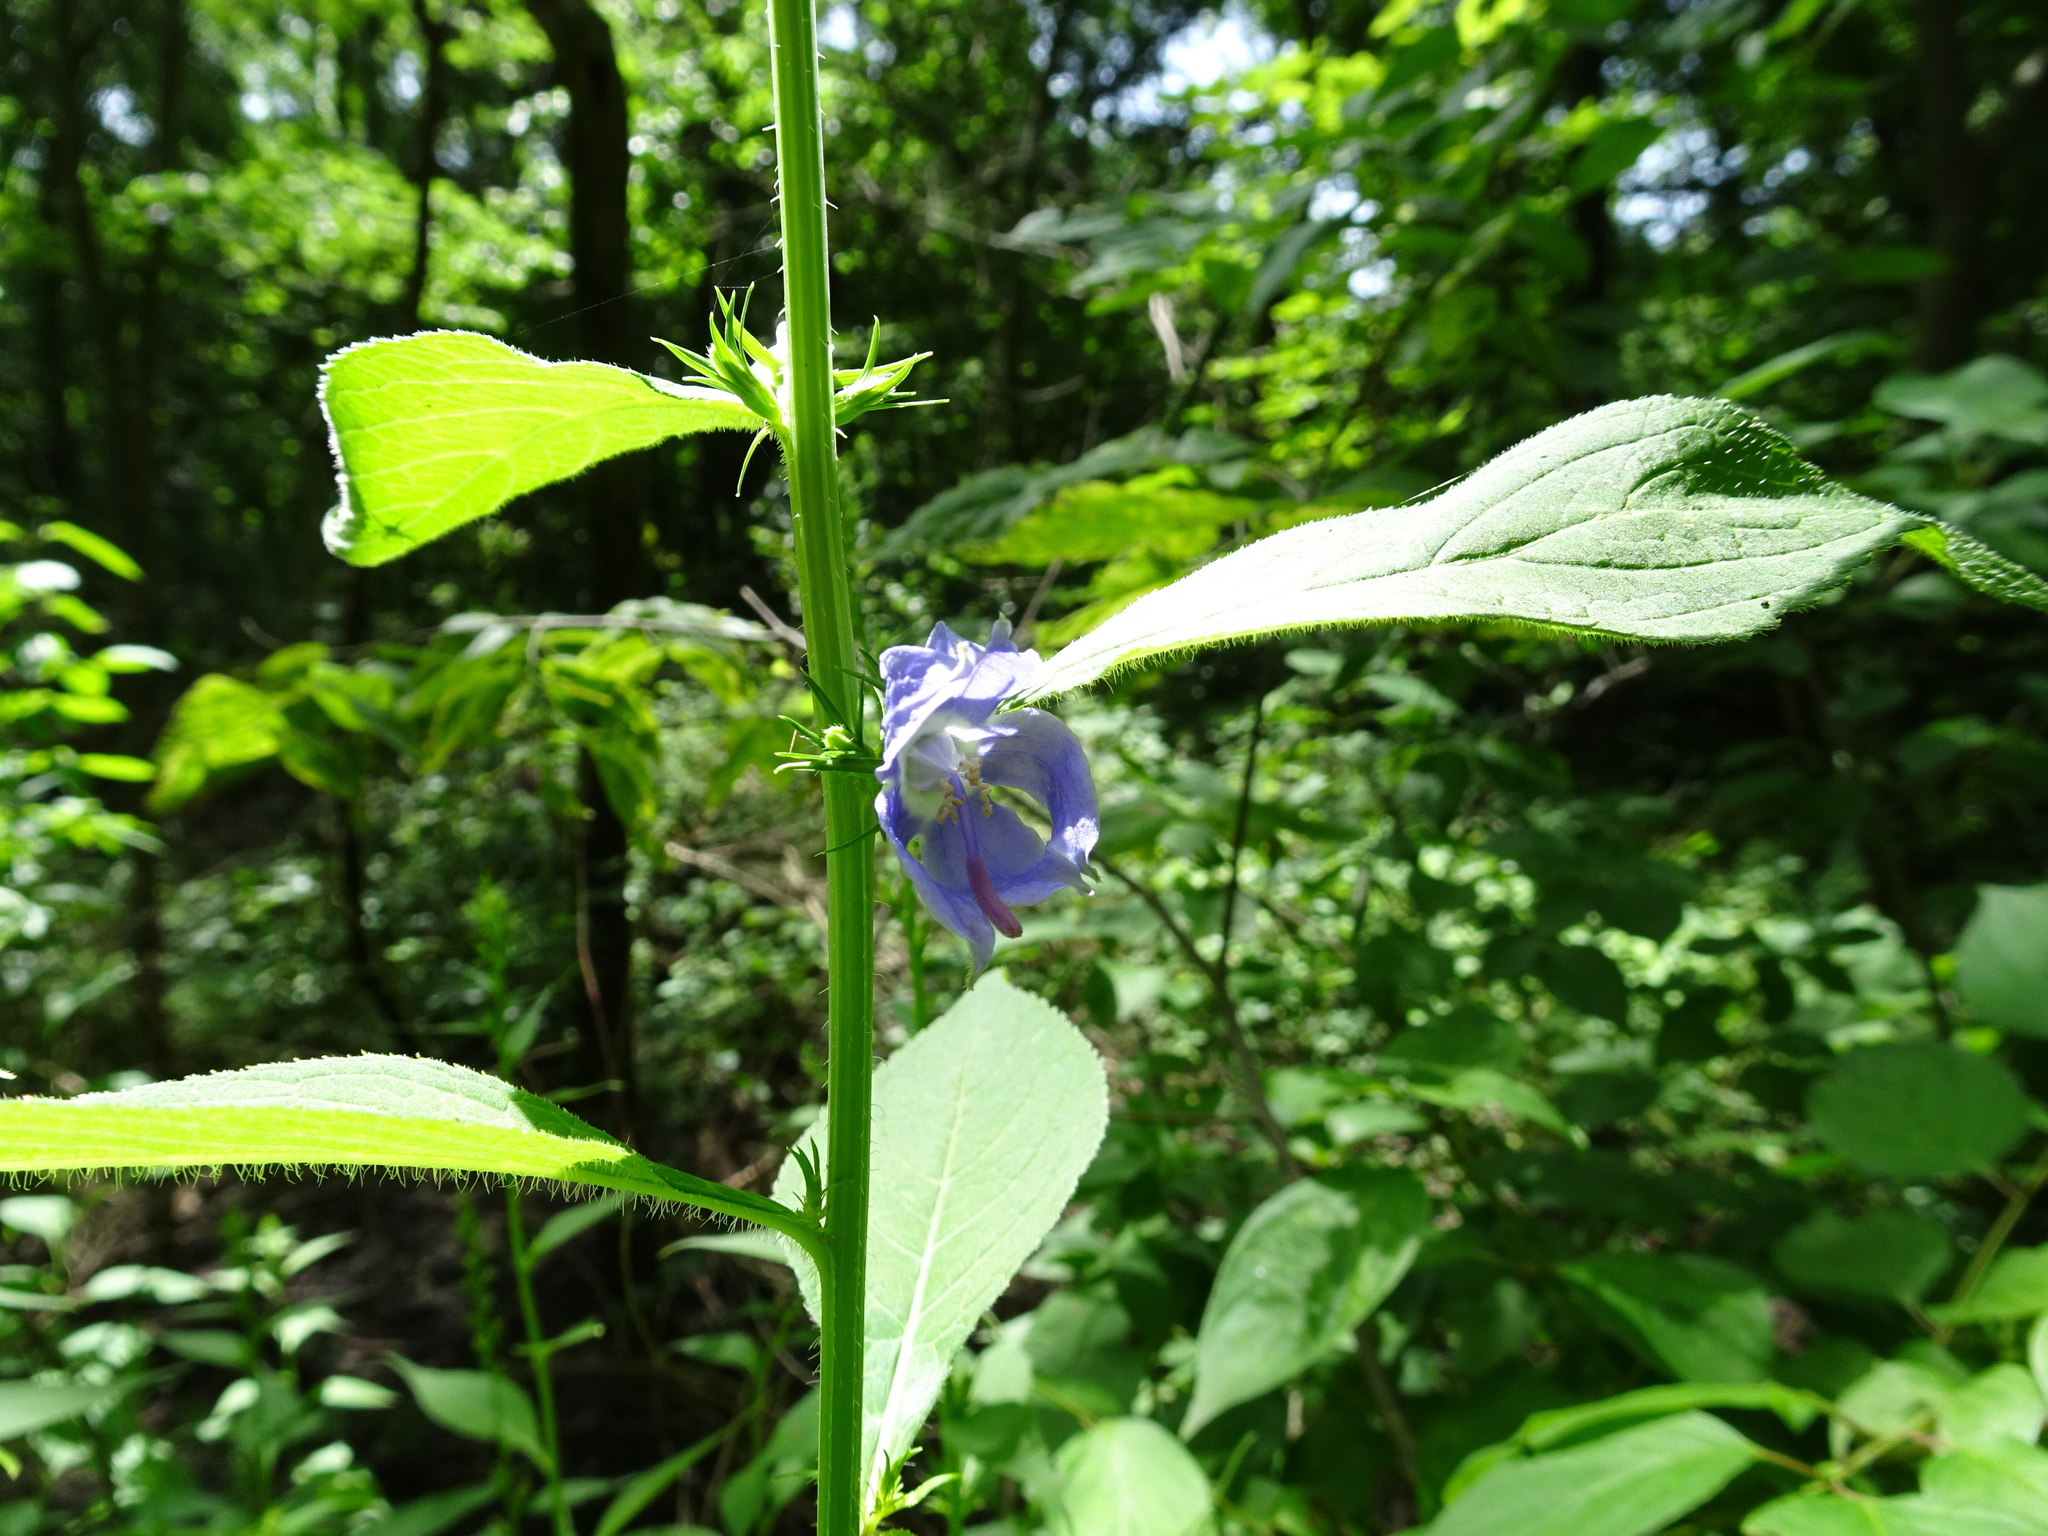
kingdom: Plantae
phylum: Tracheophyta
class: Magnoliopsida
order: Asterales
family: Campanulaceae
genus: Campanulastrum
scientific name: Campanulastrum americanum
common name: American bellflower
